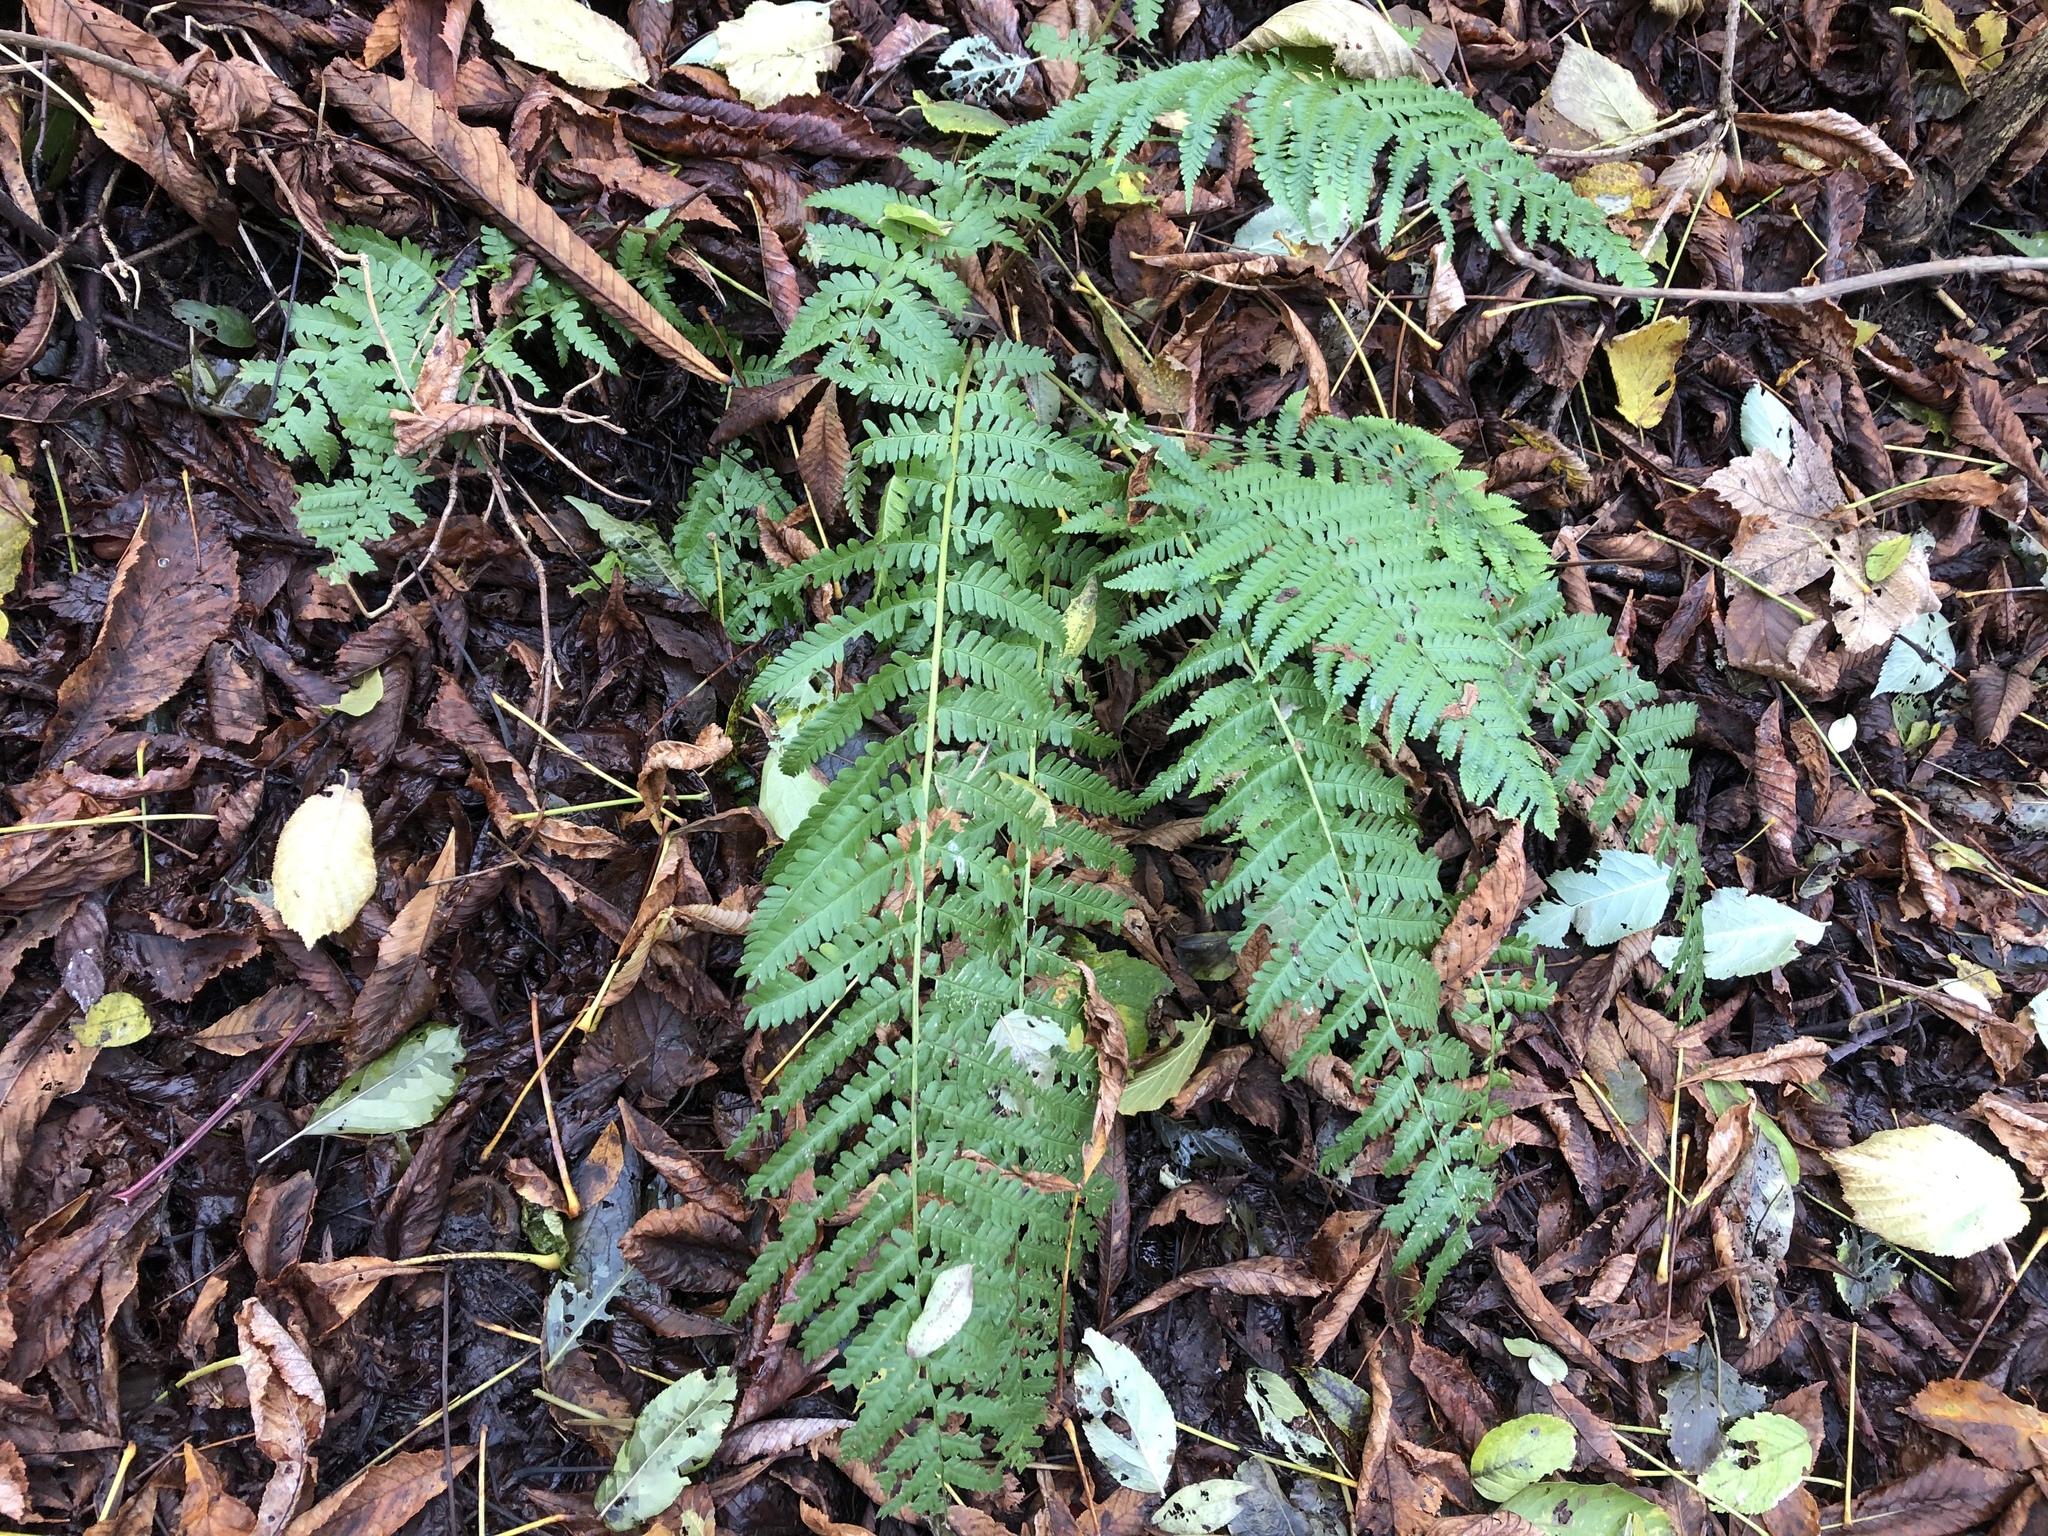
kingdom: Plantae
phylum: Tracheophyta
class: Polypodiopsida
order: Polypodiales
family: Dryopteridaceae
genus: Dryopteris
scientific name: Dryopteris filix-mas
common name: Male fern
